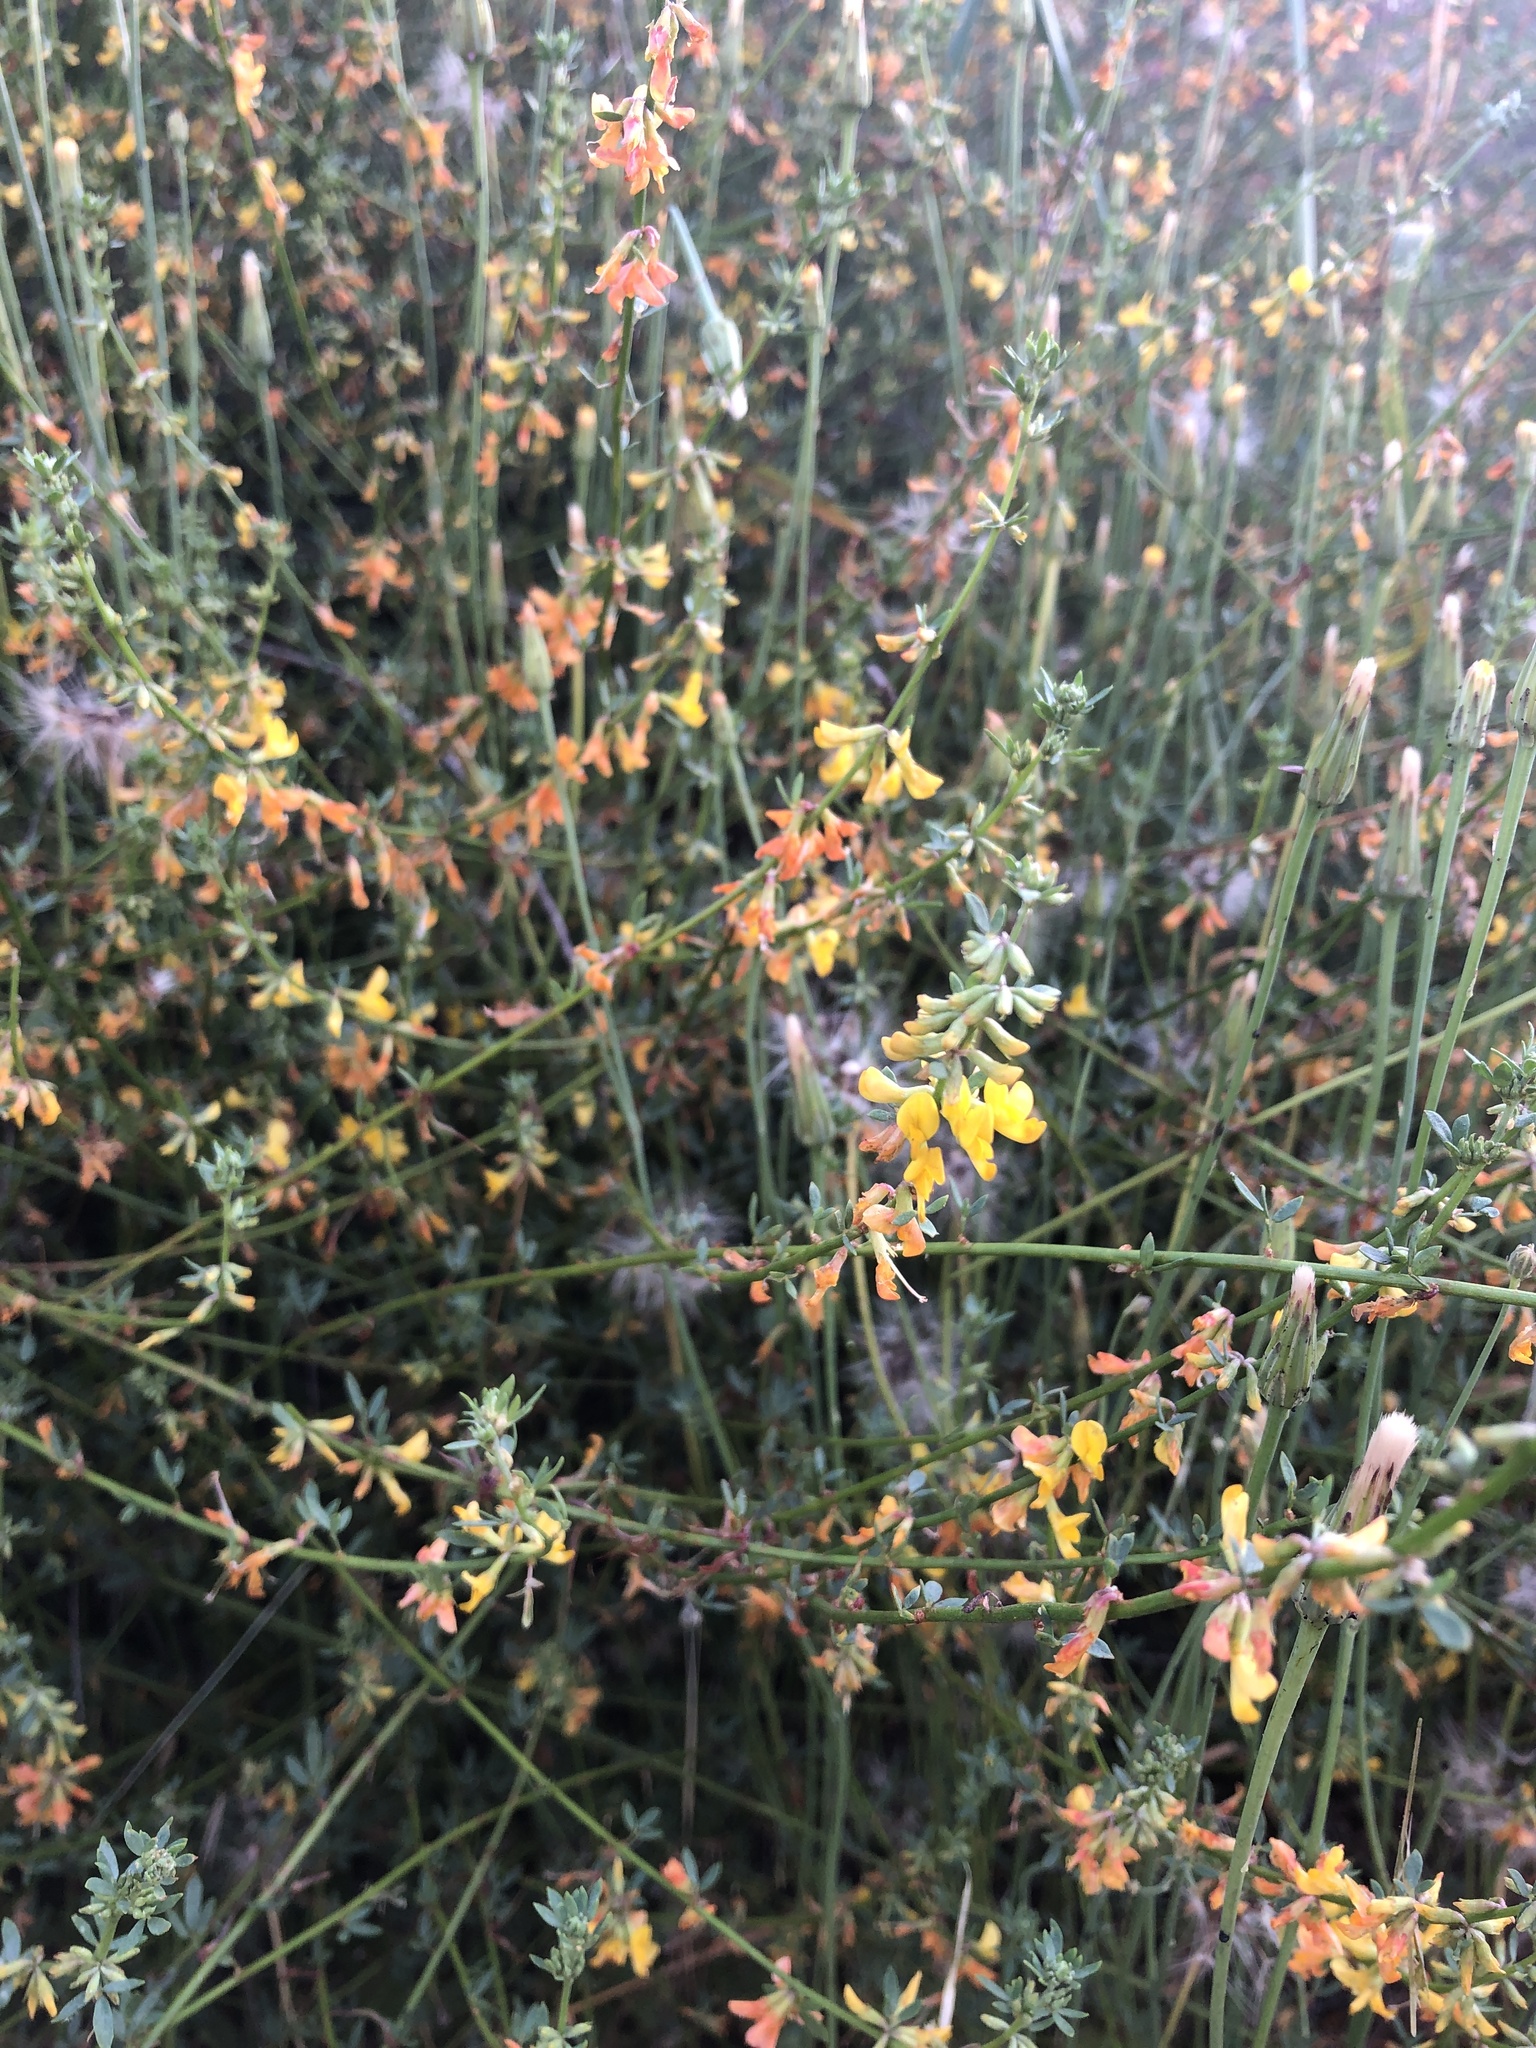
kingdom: Plantae
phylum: Tracheophyta
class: Magnoliopsida
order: Fabales
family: Fabaceae
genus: Acmispon
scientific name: Acmispon glaber
